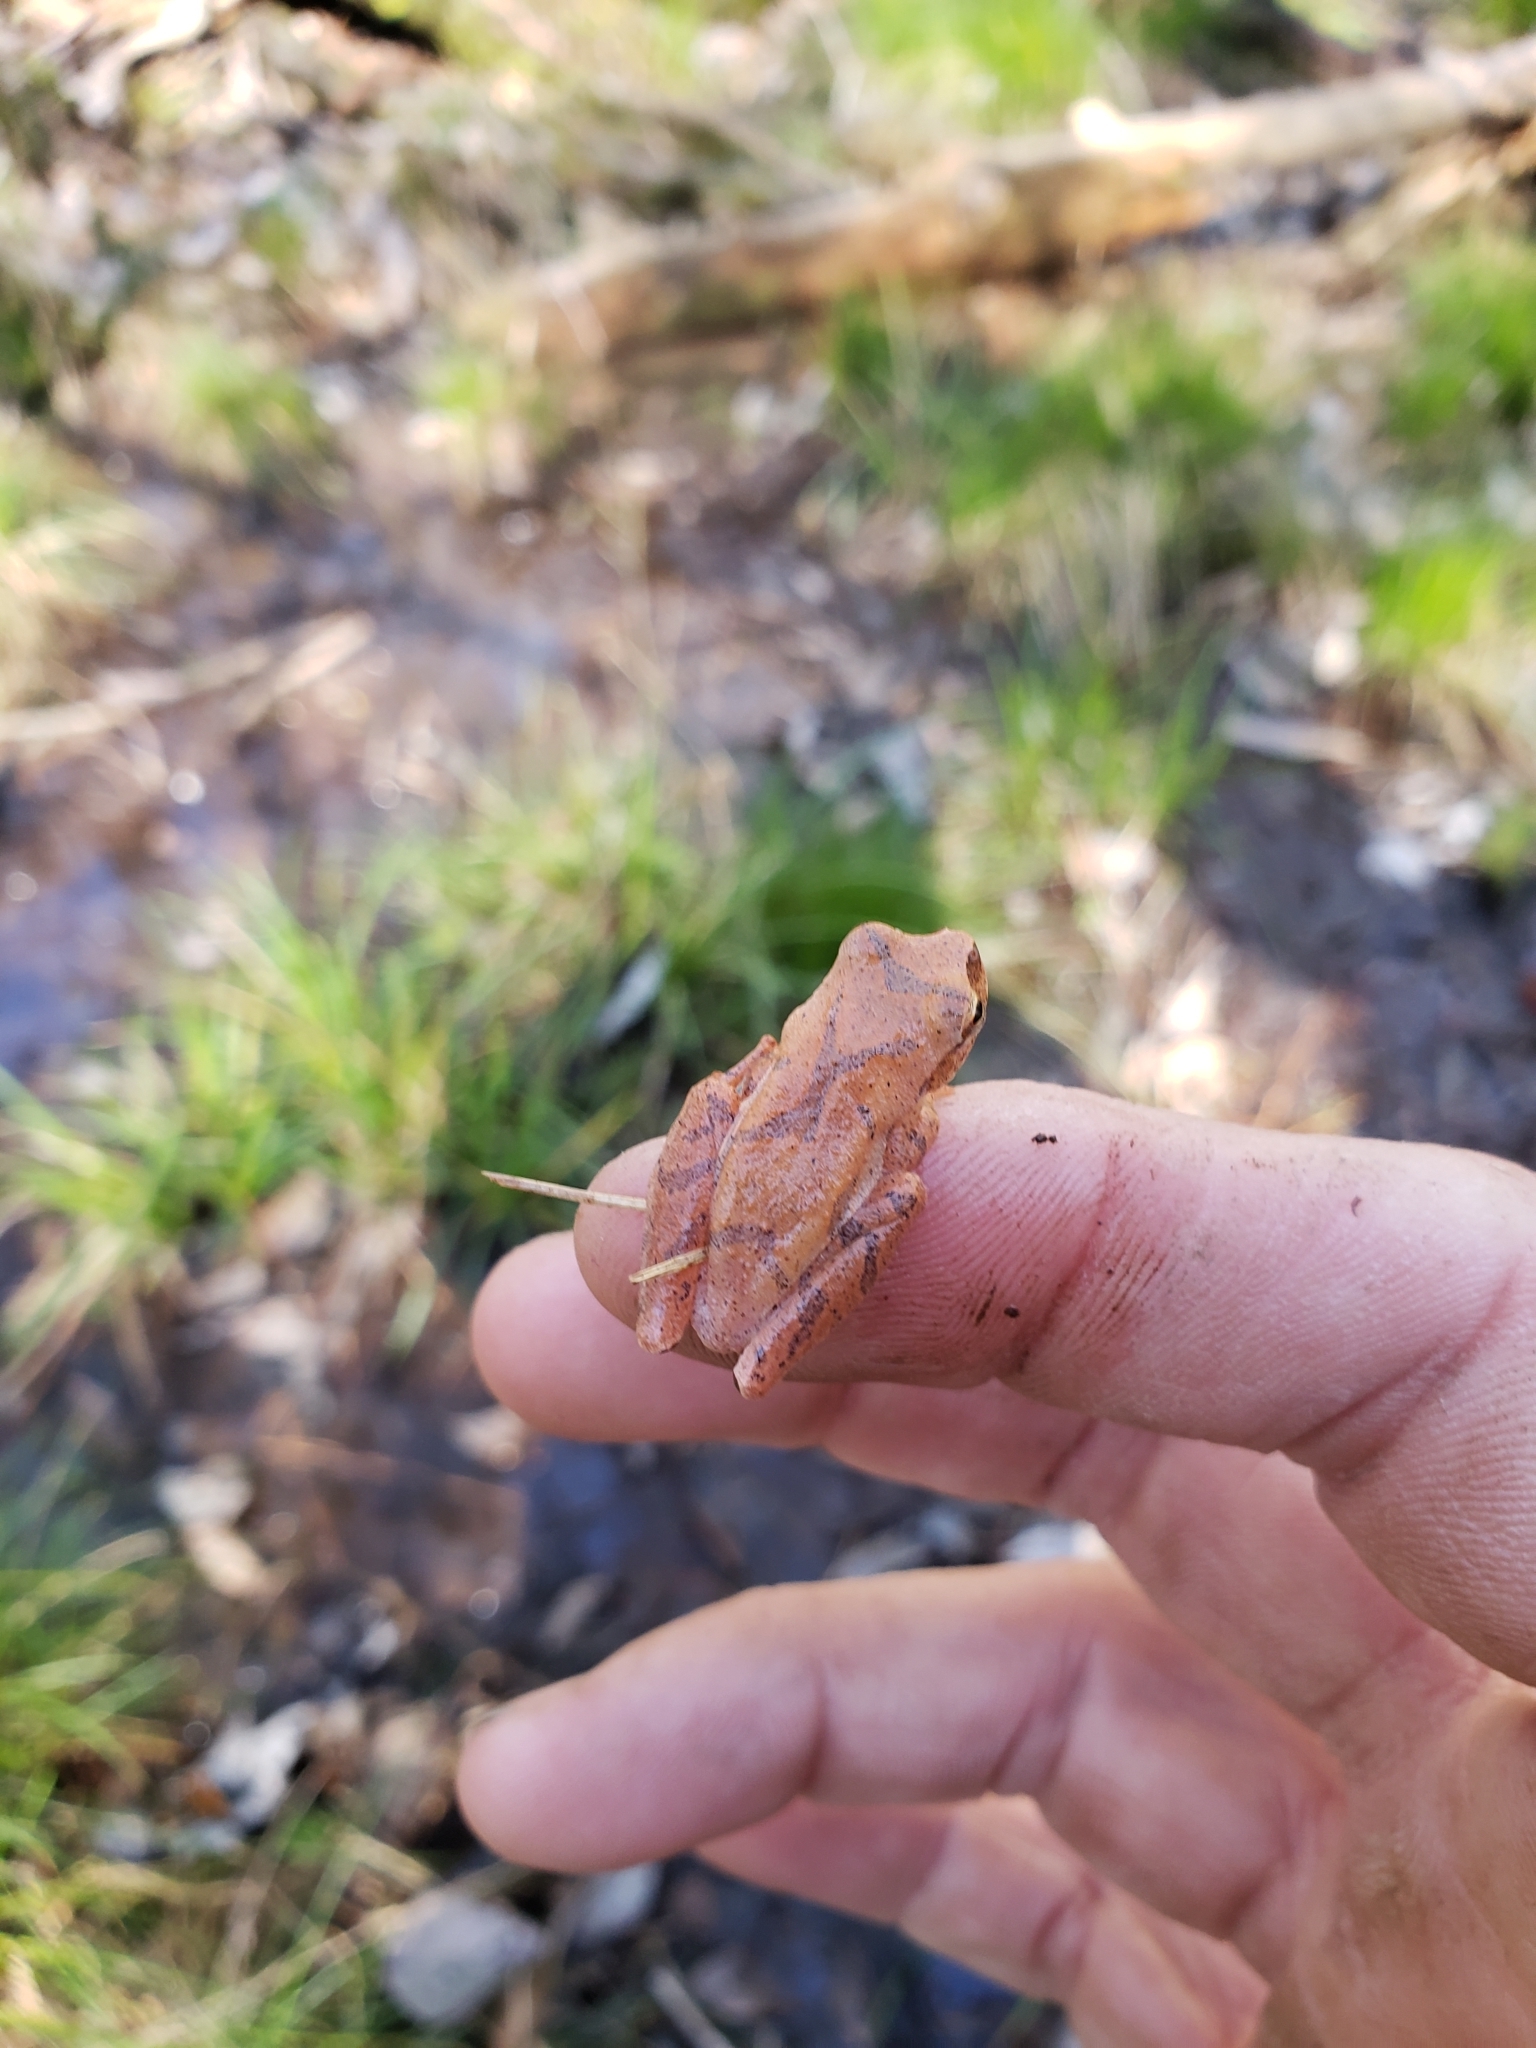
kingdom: Animalia
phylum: Chordata
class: Amphibia
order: Anura
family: Hylidae
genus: Pseudacris
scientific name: Pseudacris crucifer
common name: Spring peeper
